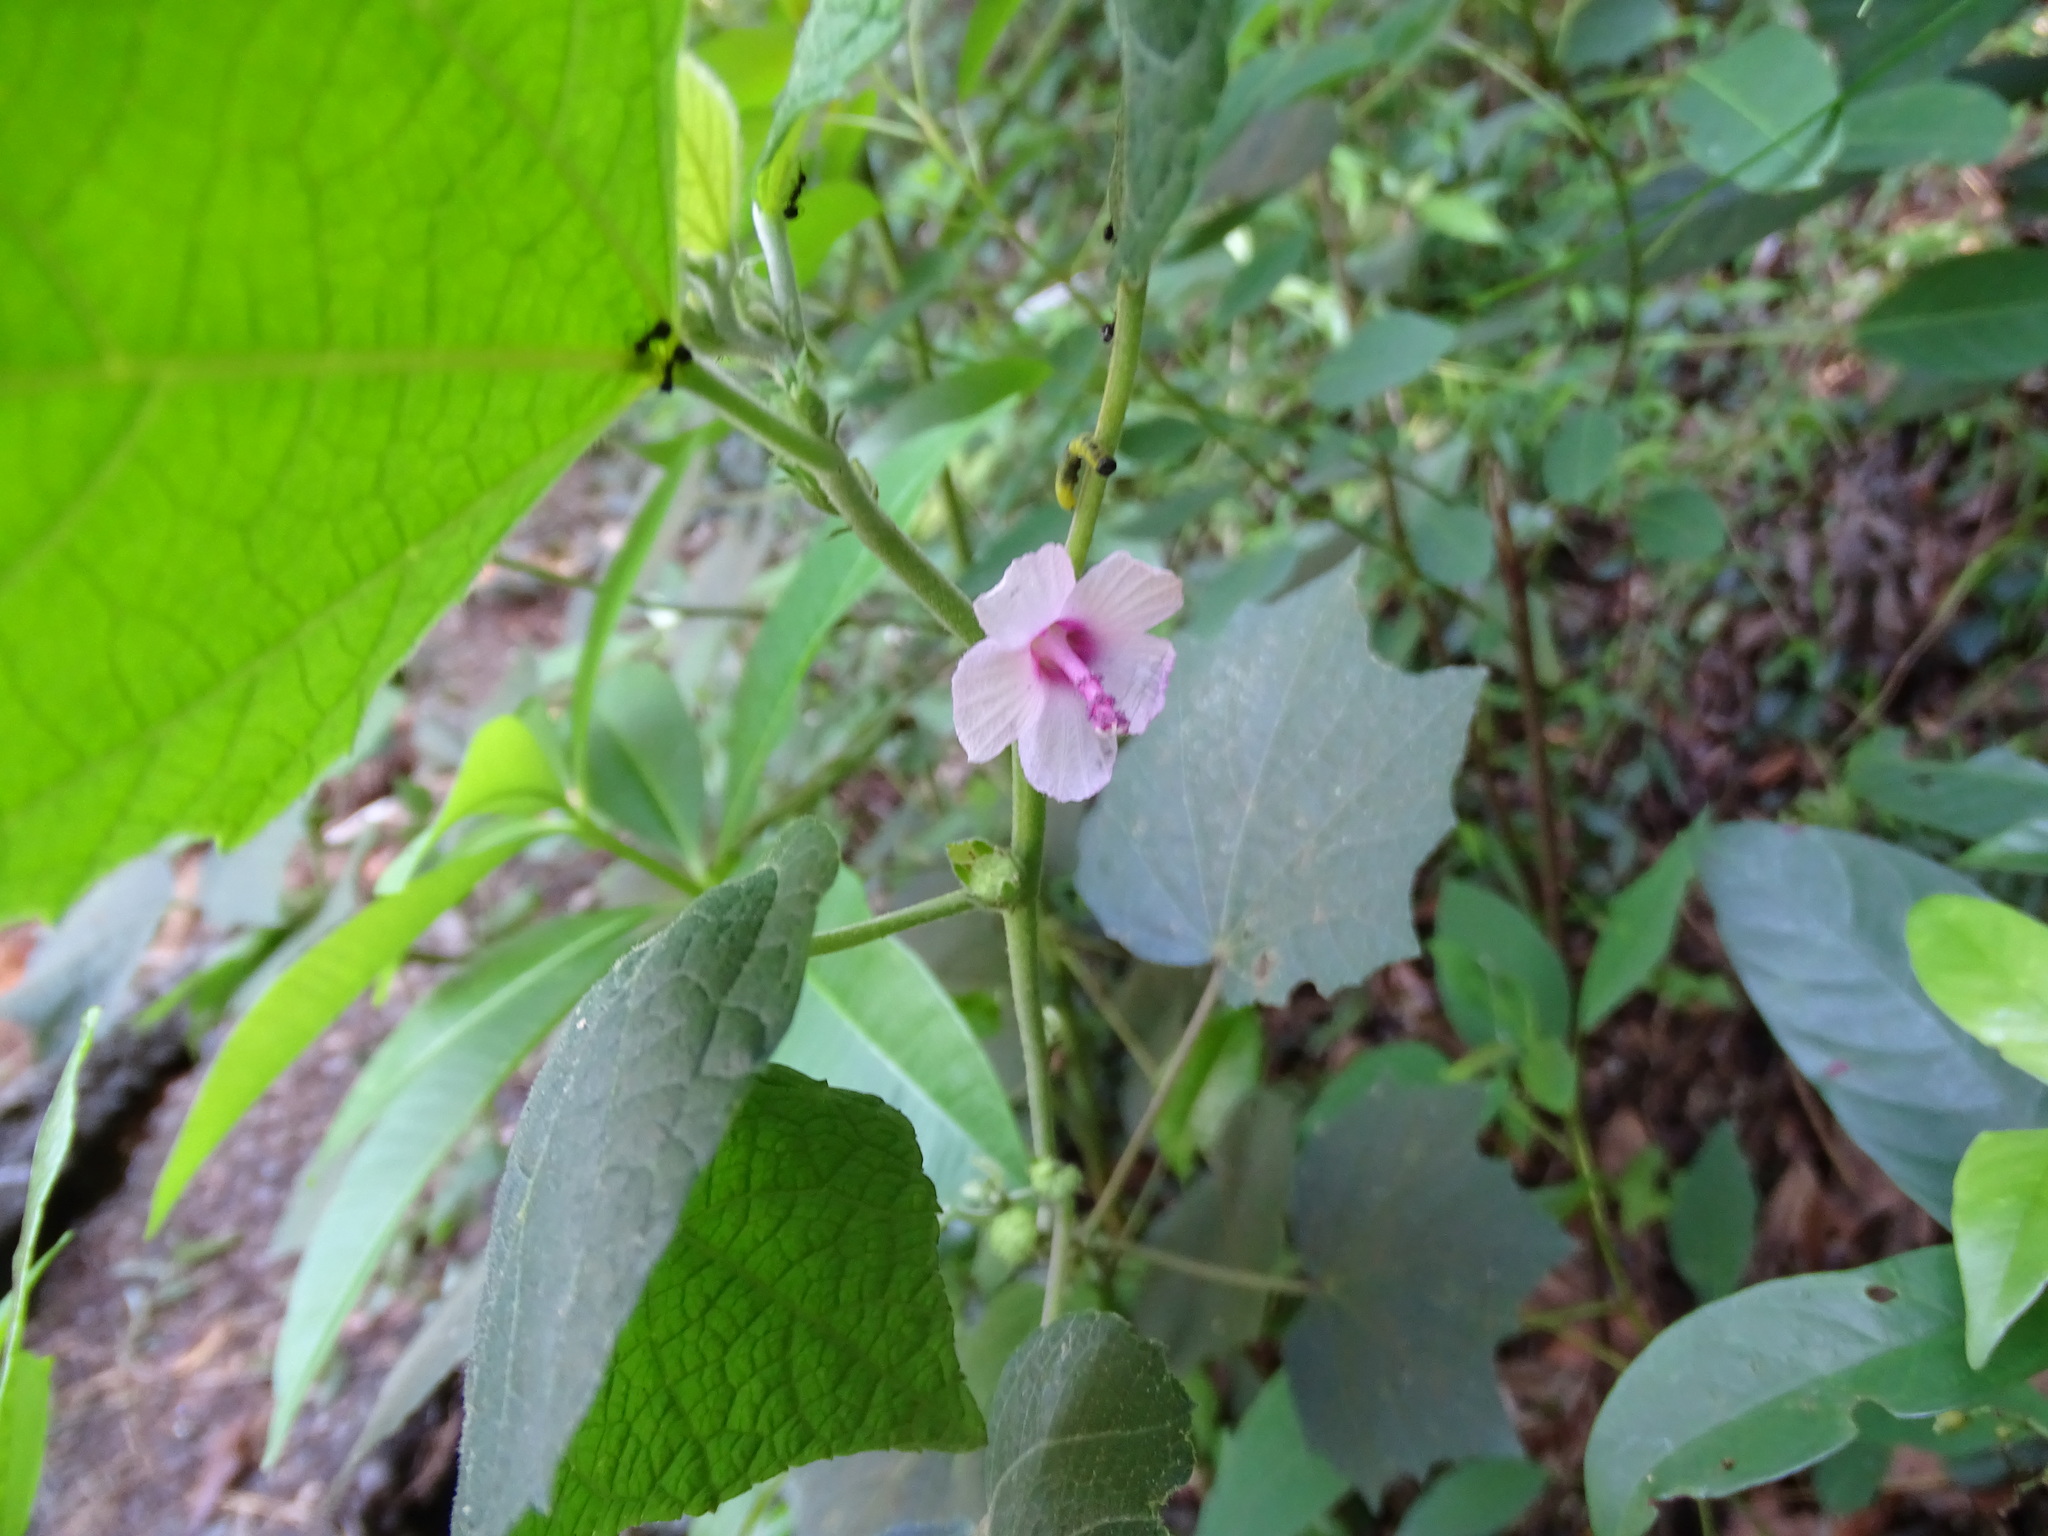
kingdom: Plantae
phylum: Tracheophyta
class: Magnoliopsida
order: Malvales
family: Malvaceae
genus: Urena
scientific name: Urena lobata
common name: Caesarweed
